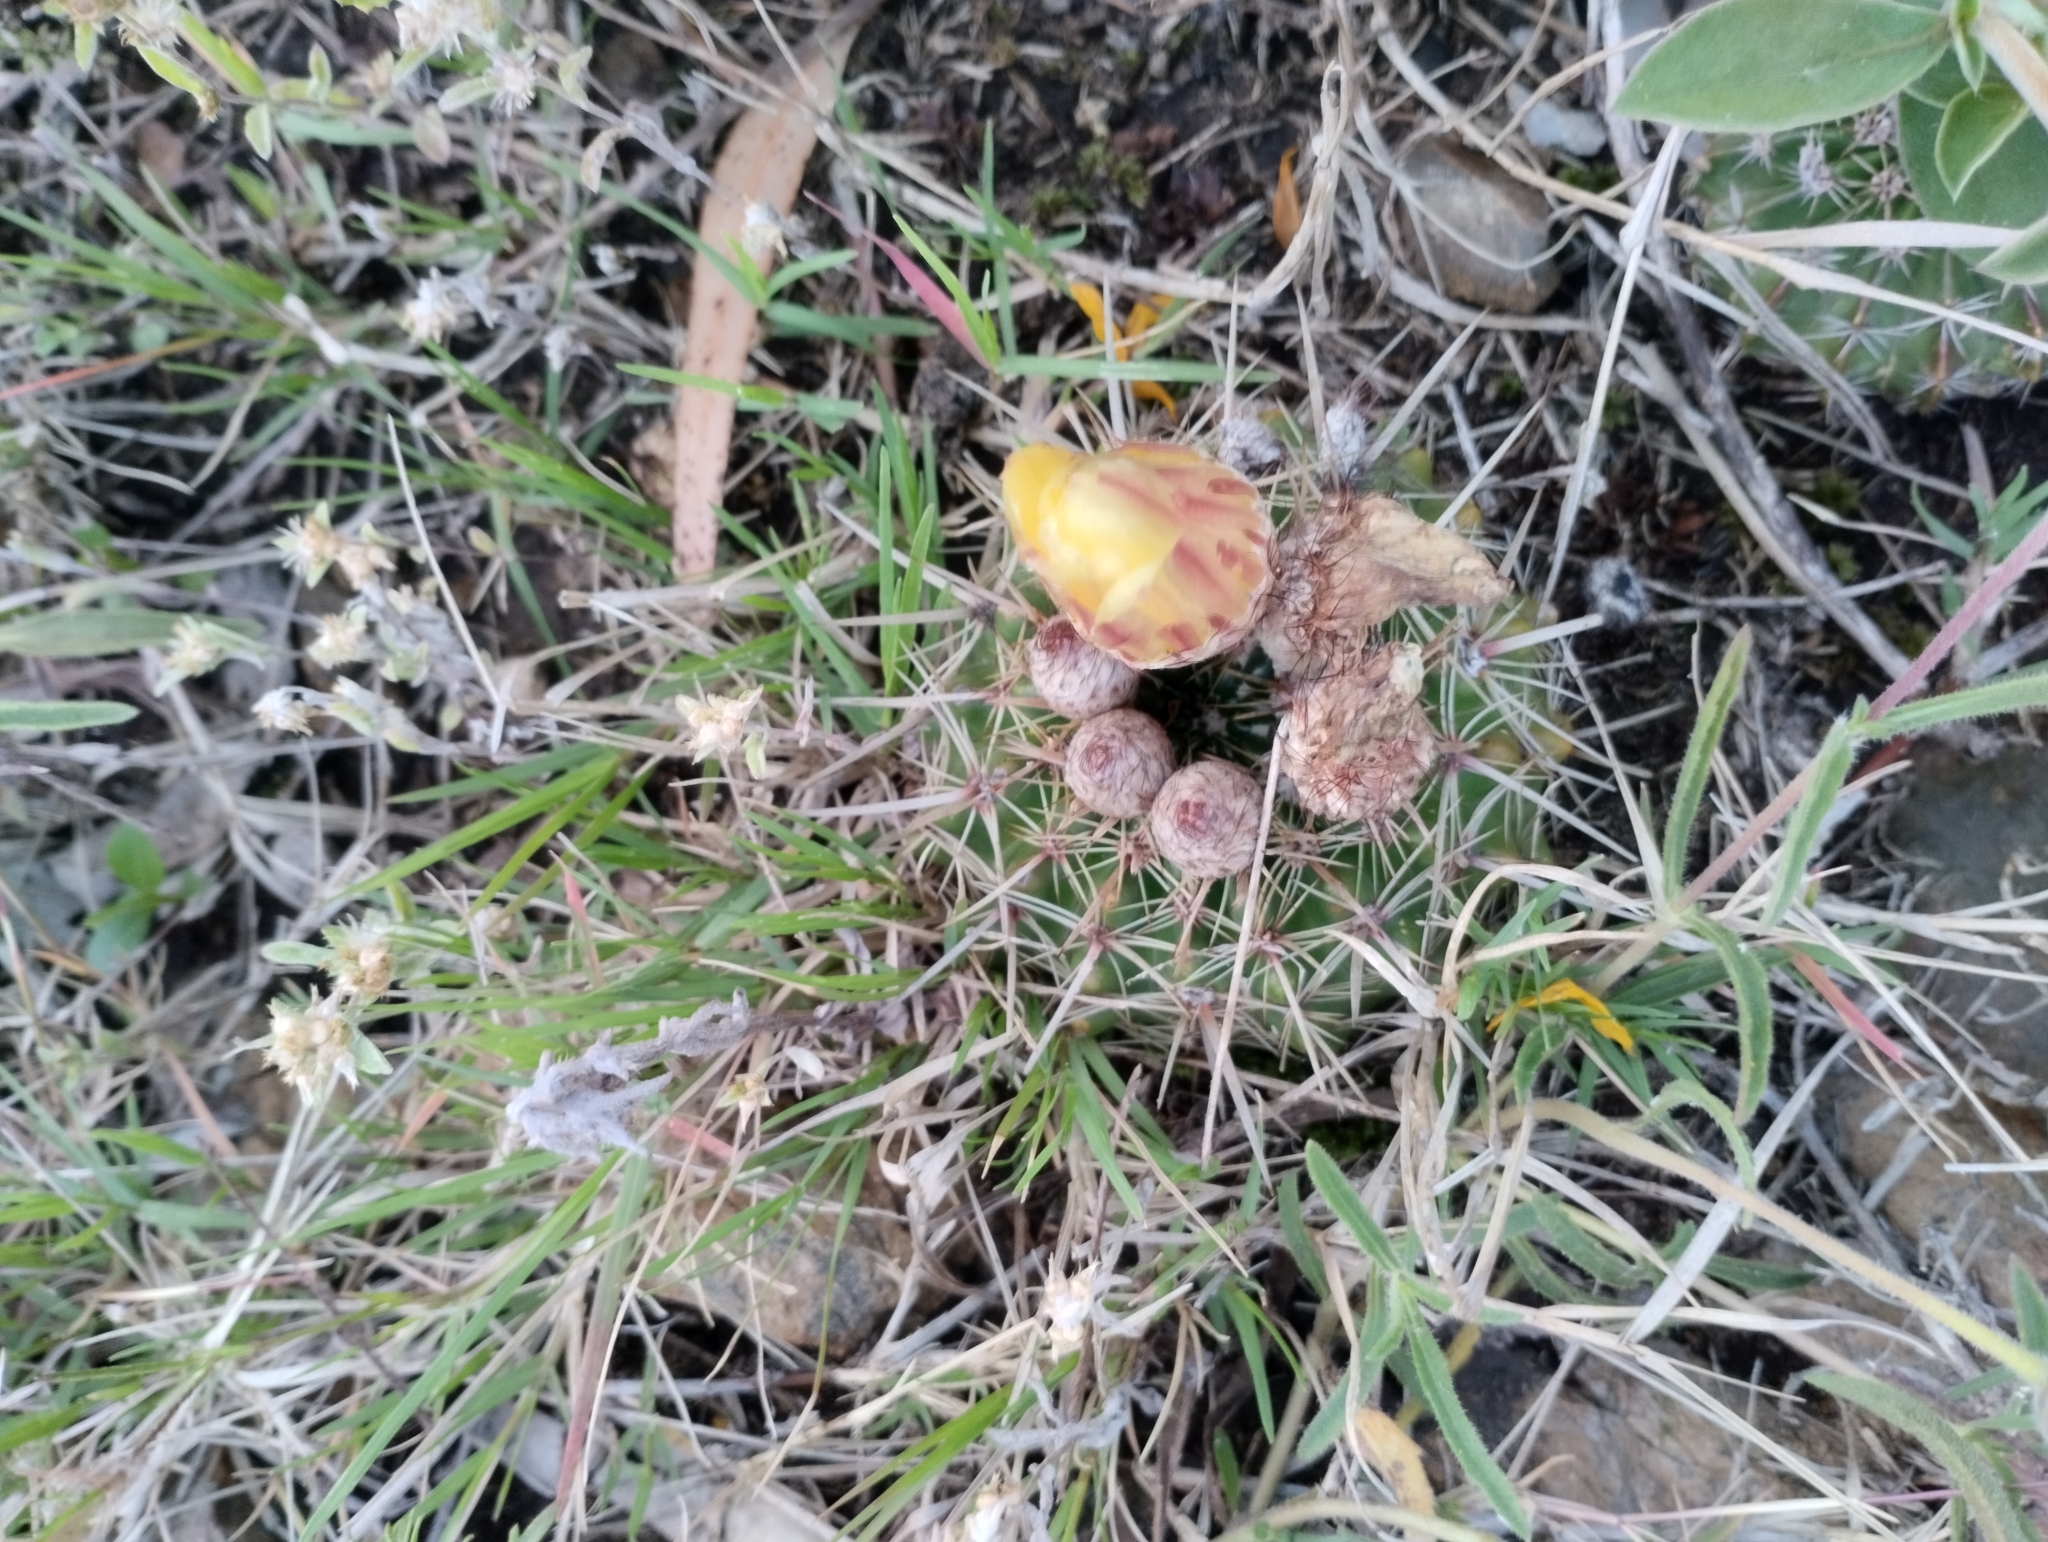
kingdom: Plantae
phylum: Tracheophyta
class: Magnoliopsida
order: Caryophyllales
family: Cactaceae
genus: Parodia
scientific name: Parodia mammulosa
